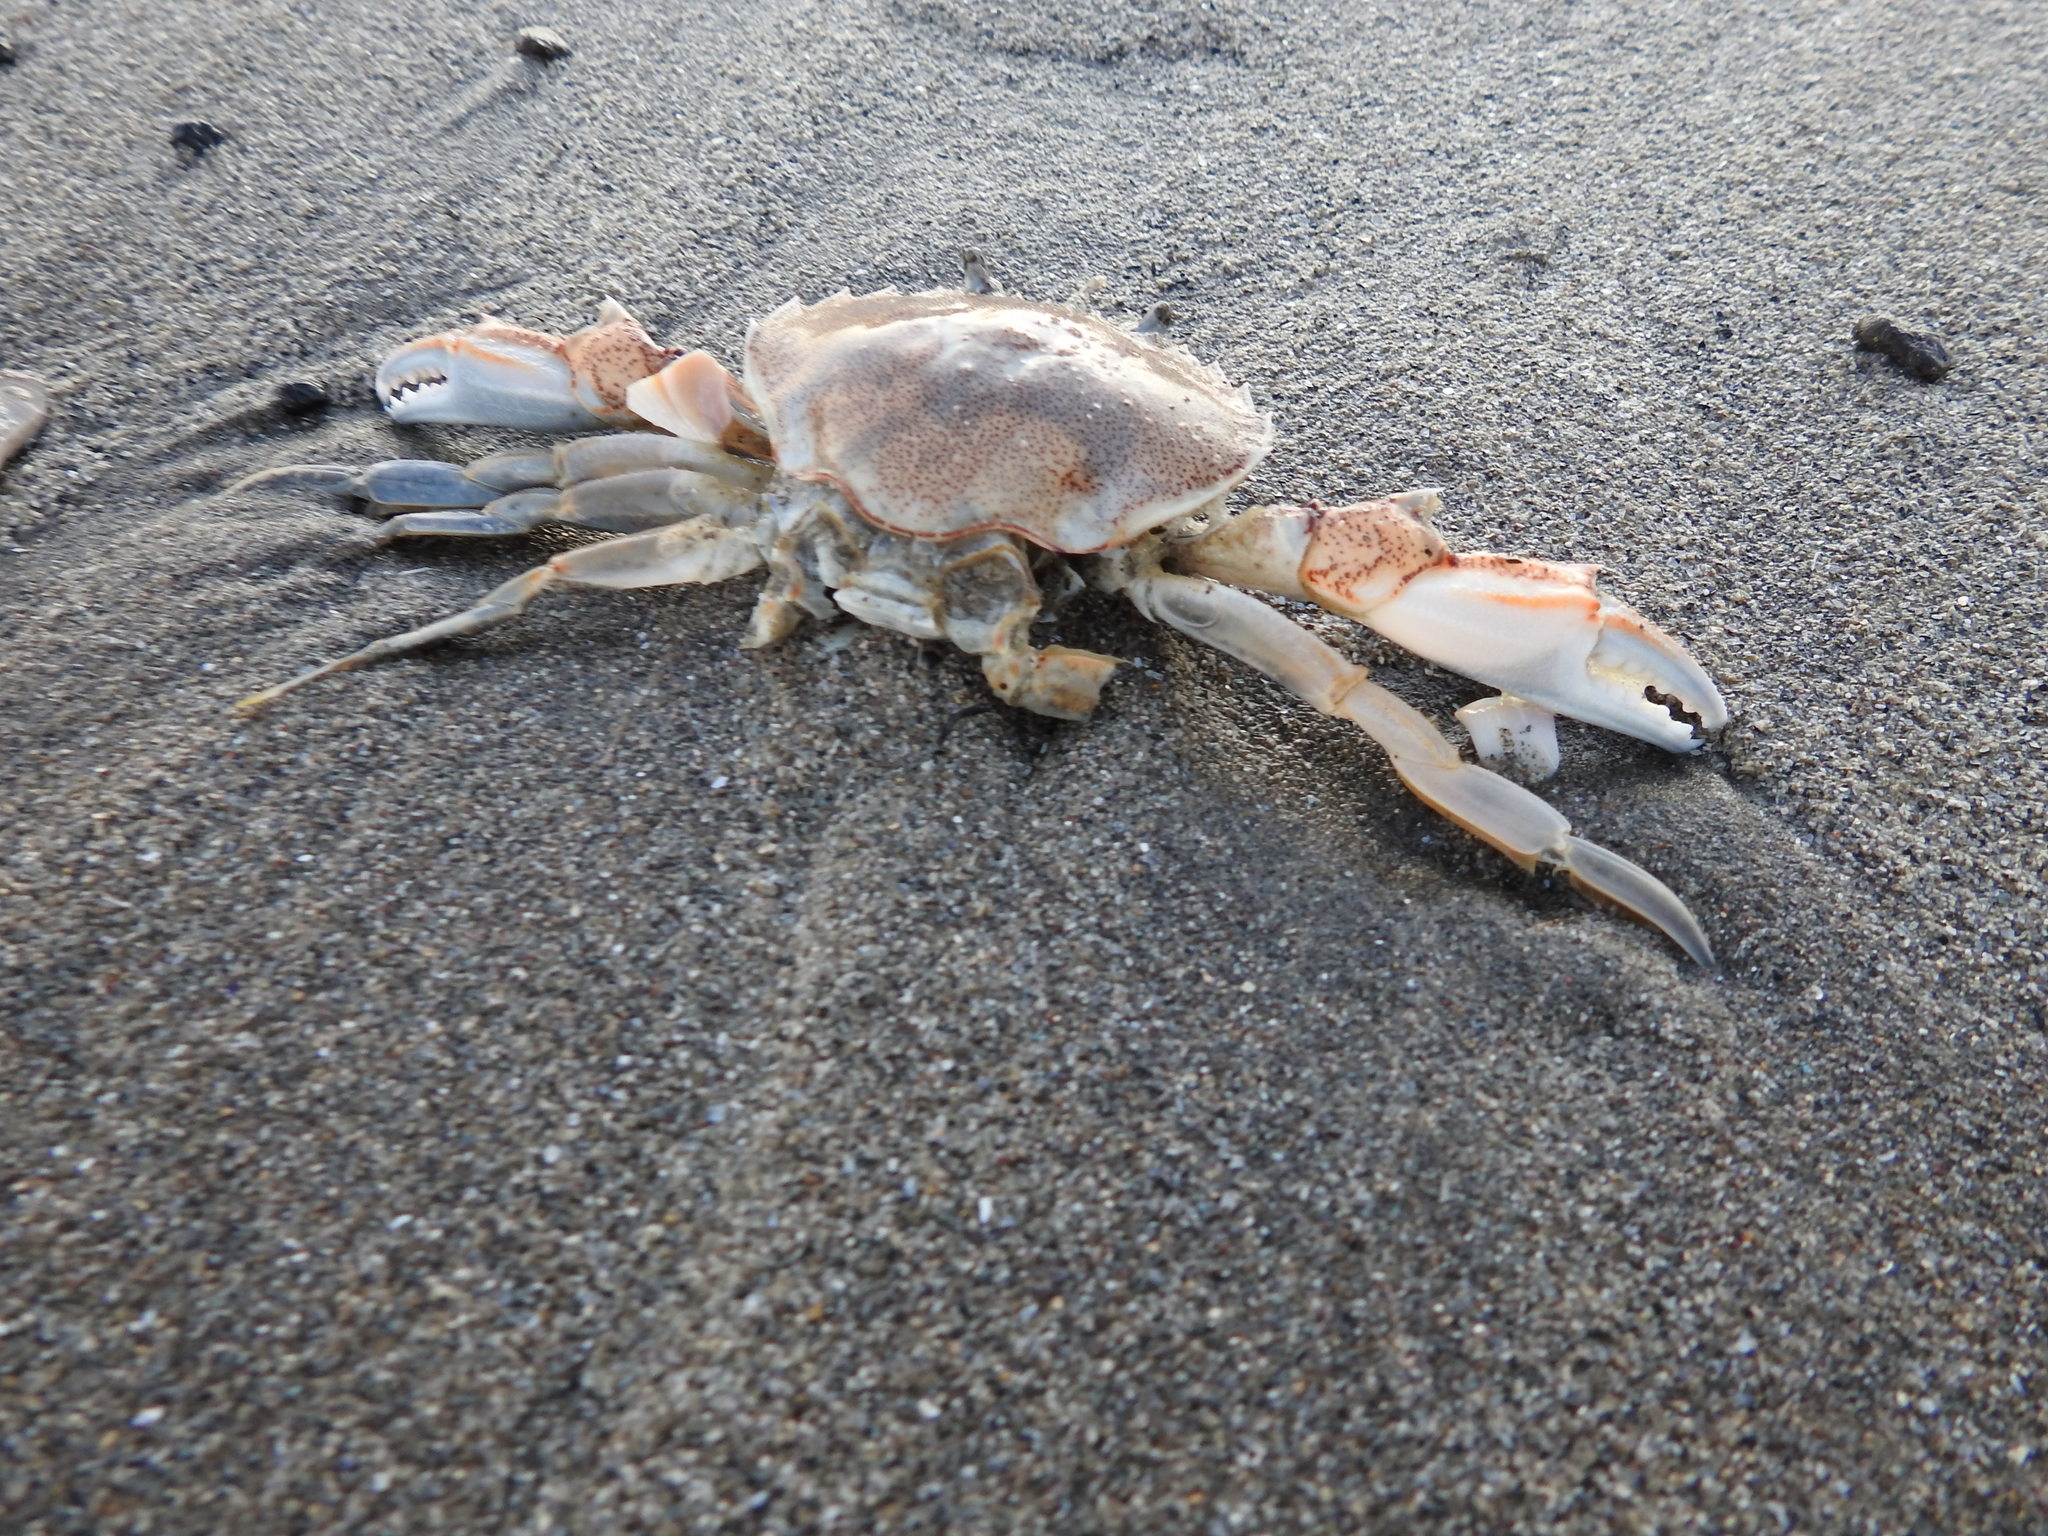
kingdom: Animalia
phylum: Arthropoda
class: Malacostraca
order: Decapoda
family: Ovalipidae
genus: Ovalipes
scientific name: Ovalipes catharus
